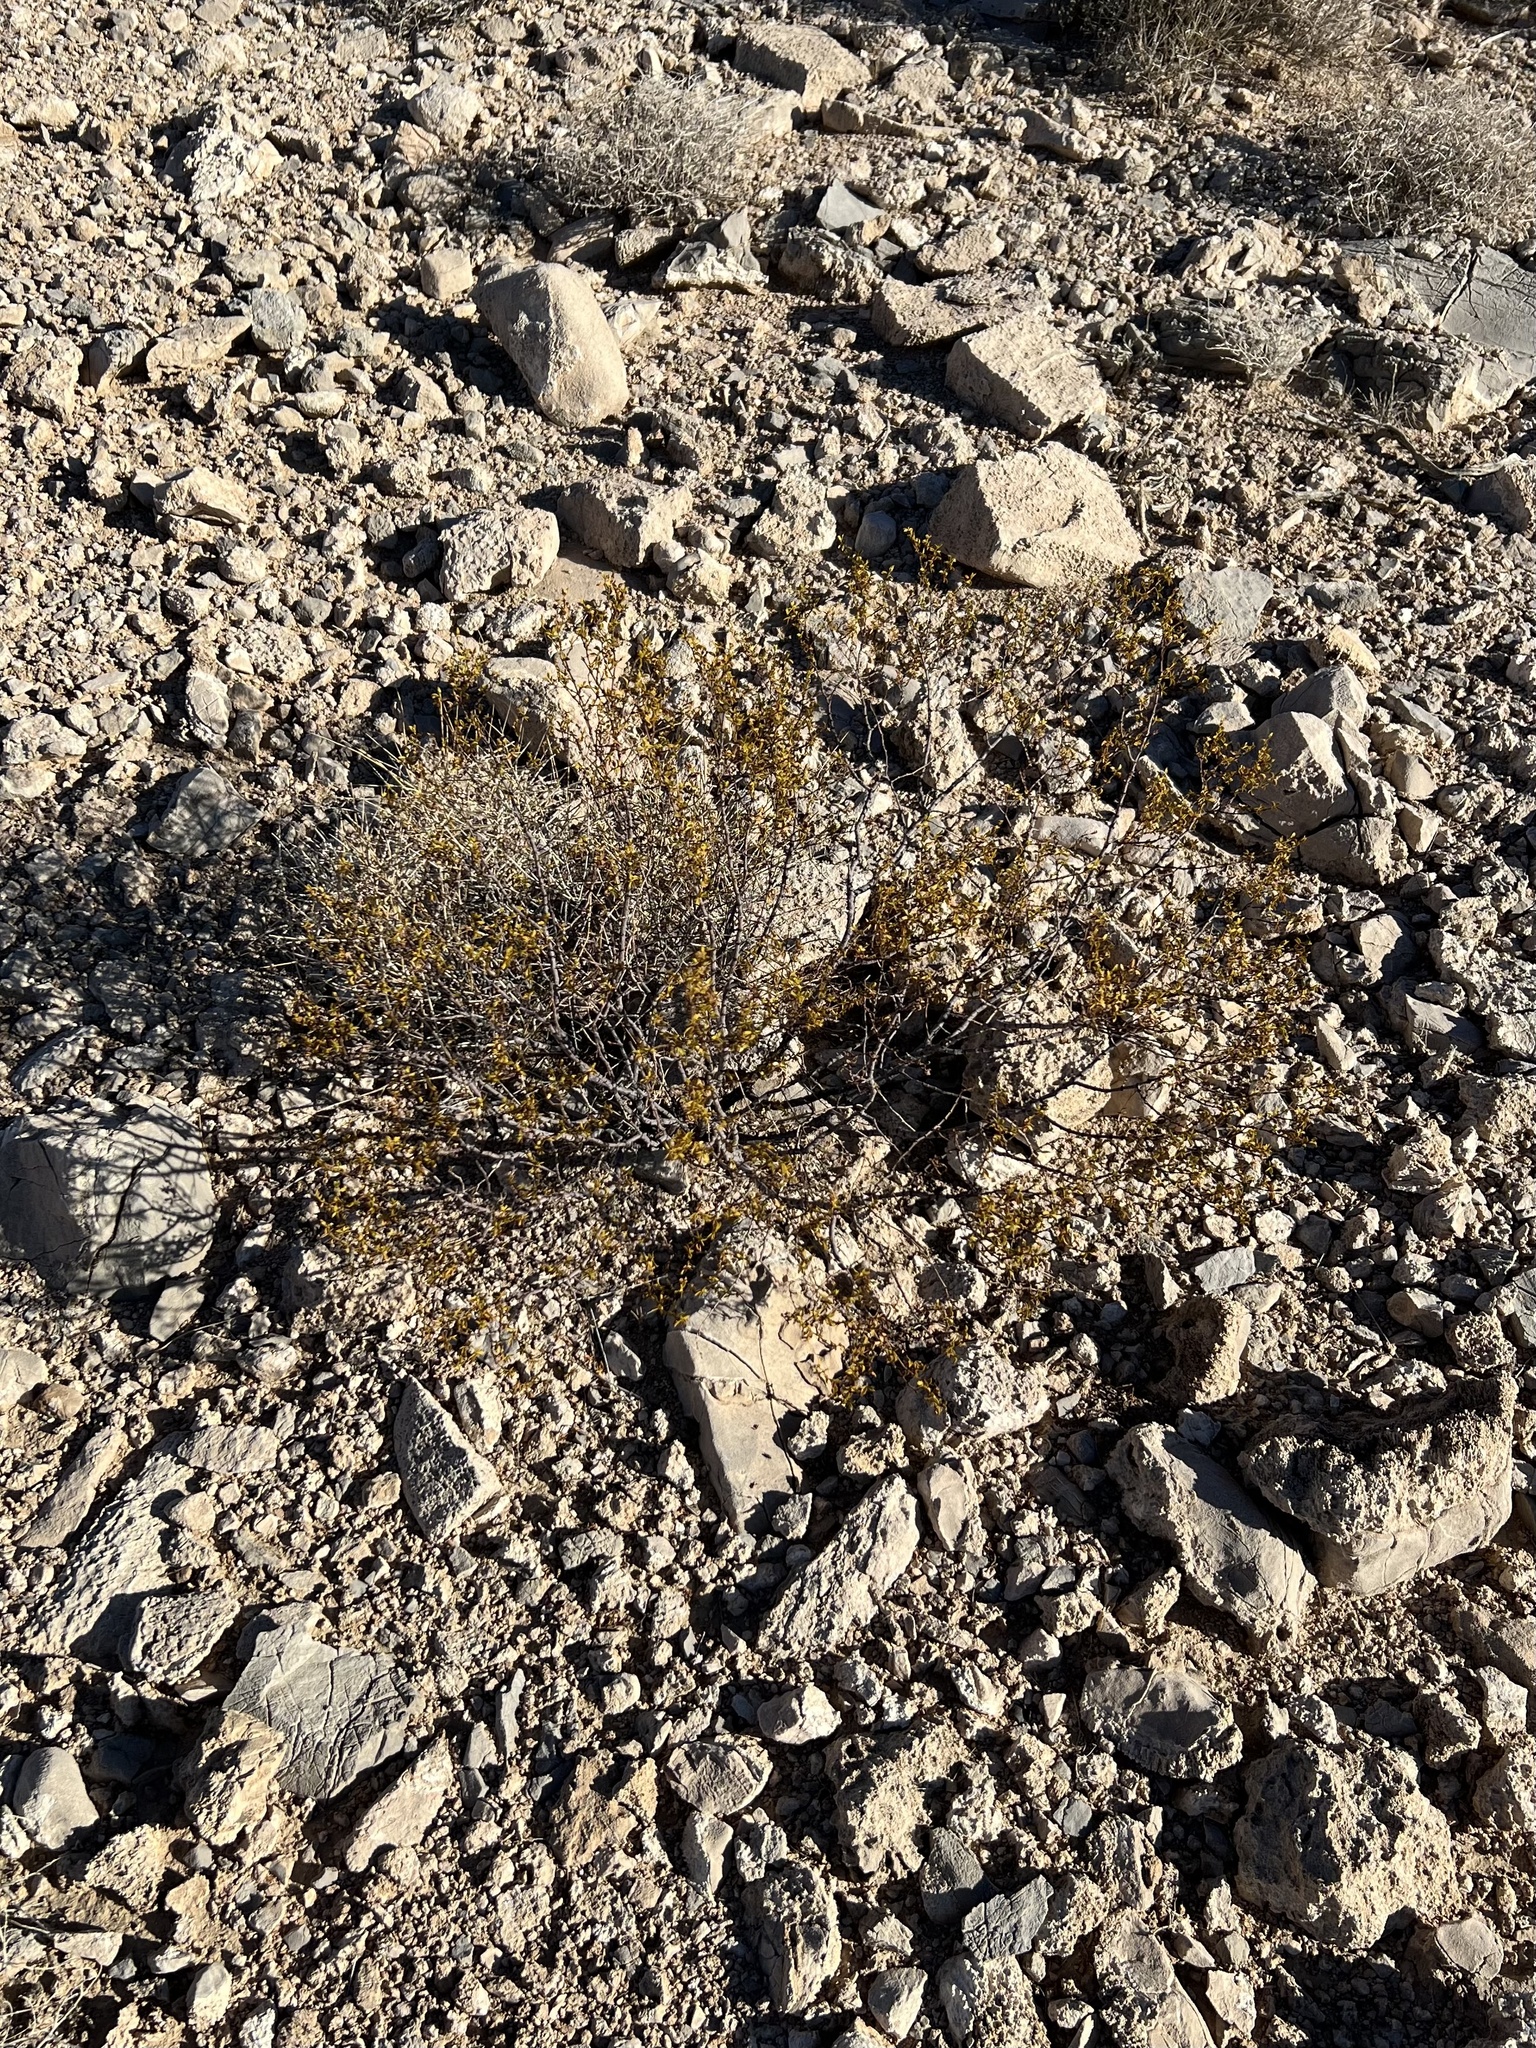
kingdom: Plantae
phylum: Tracheophyta
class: Magnoliopsida
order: Zygophyllales
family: Zygophyllaceae
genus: Larrea
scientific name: Larrea tridentata
